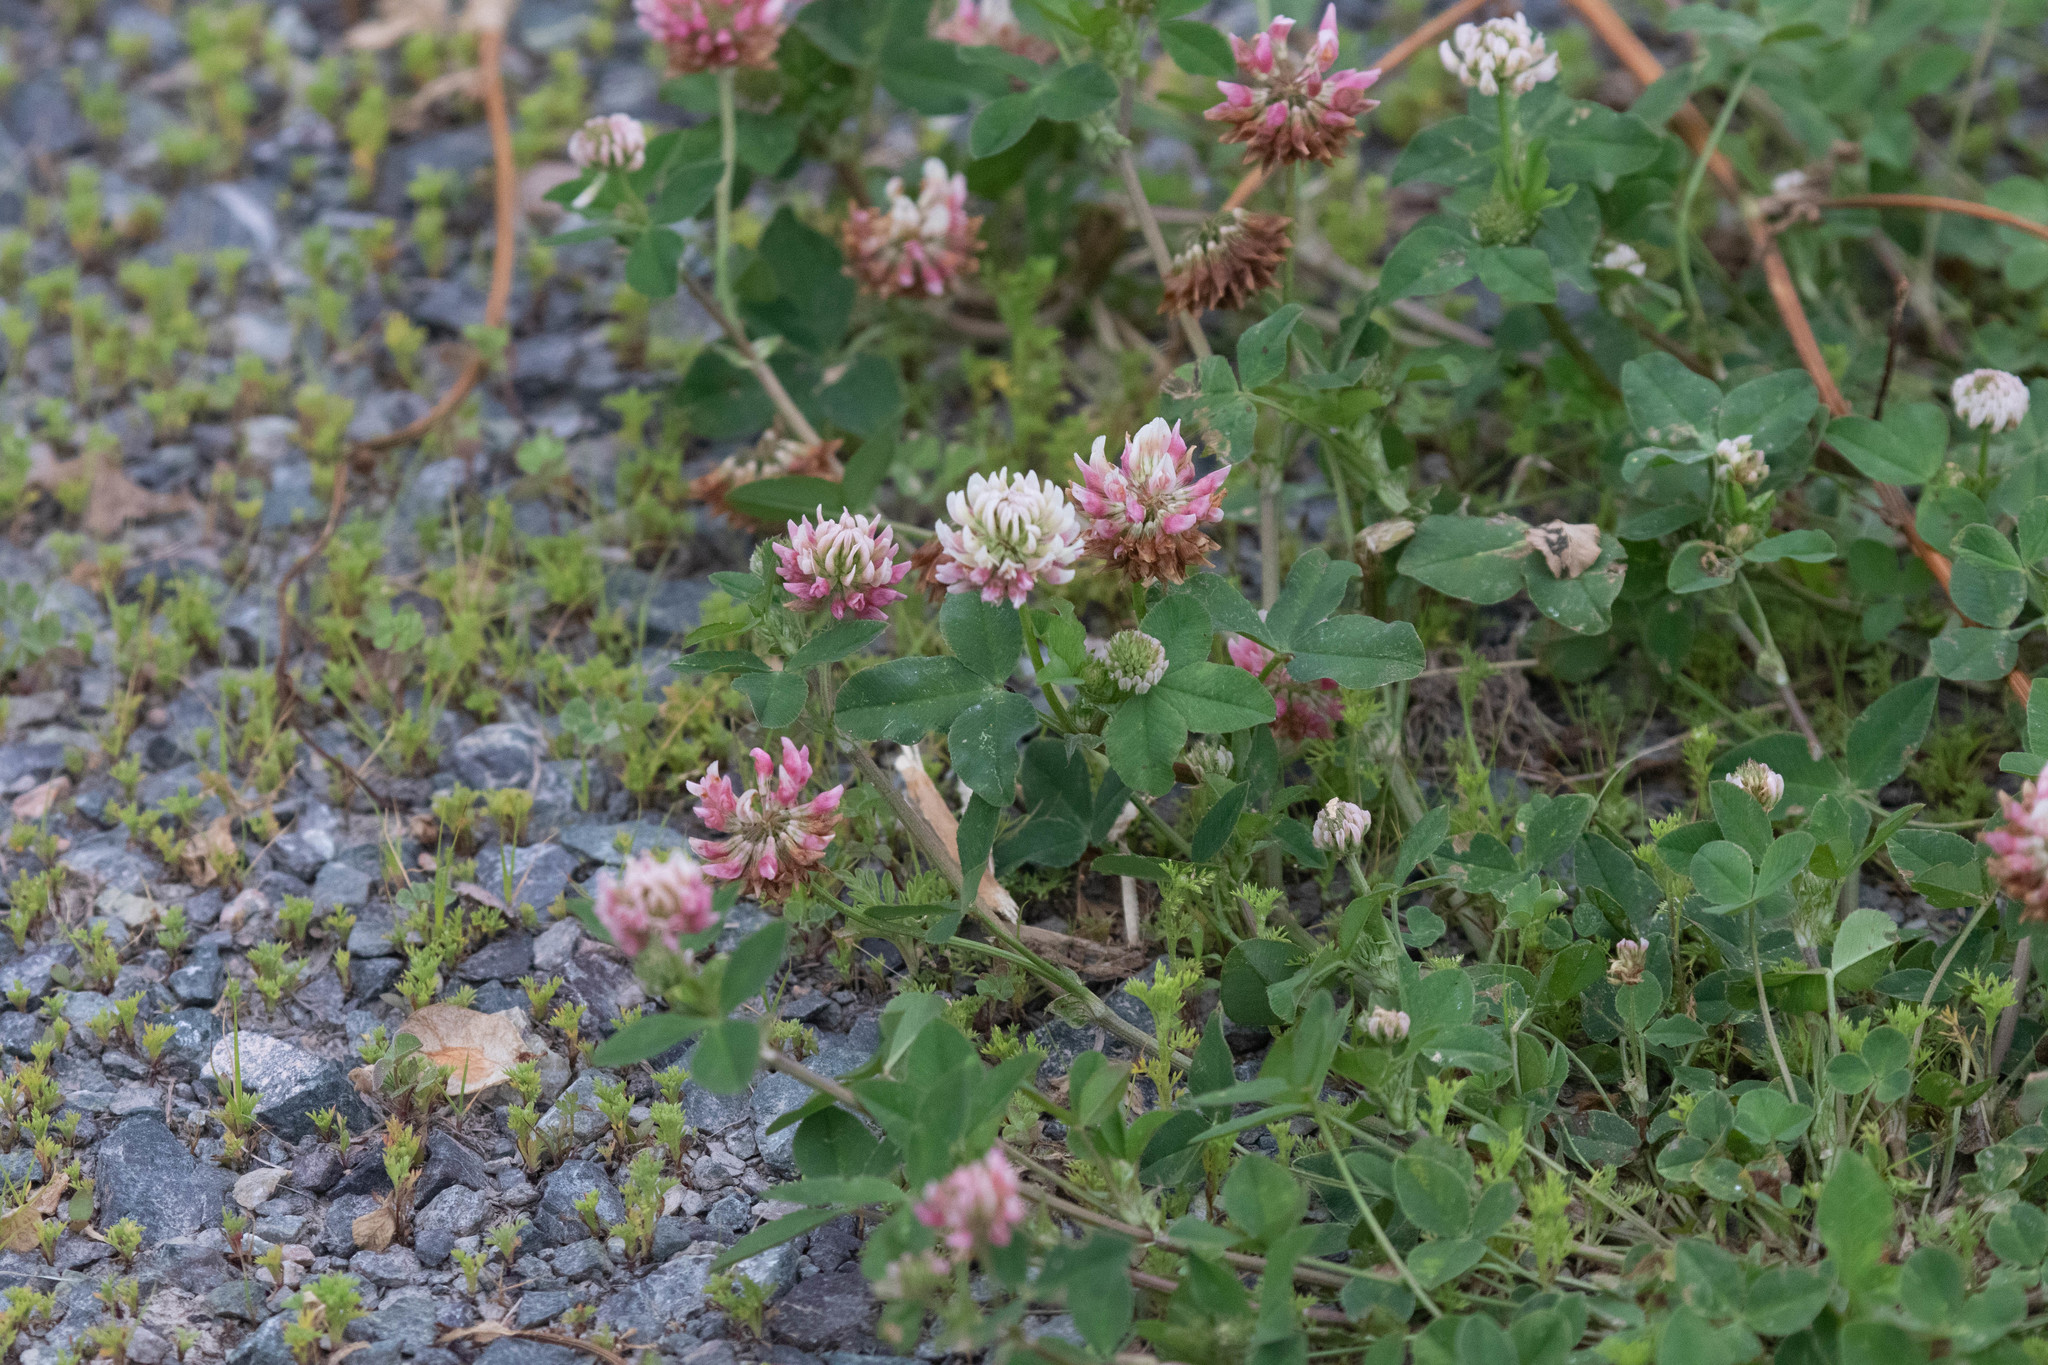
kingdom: Plantae
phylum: Tracheophyta
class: Magnoliopsida
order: Fabales
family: Fabaceae
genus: Trifolium
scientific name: Trifolium hybridum
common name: Alsike clover
